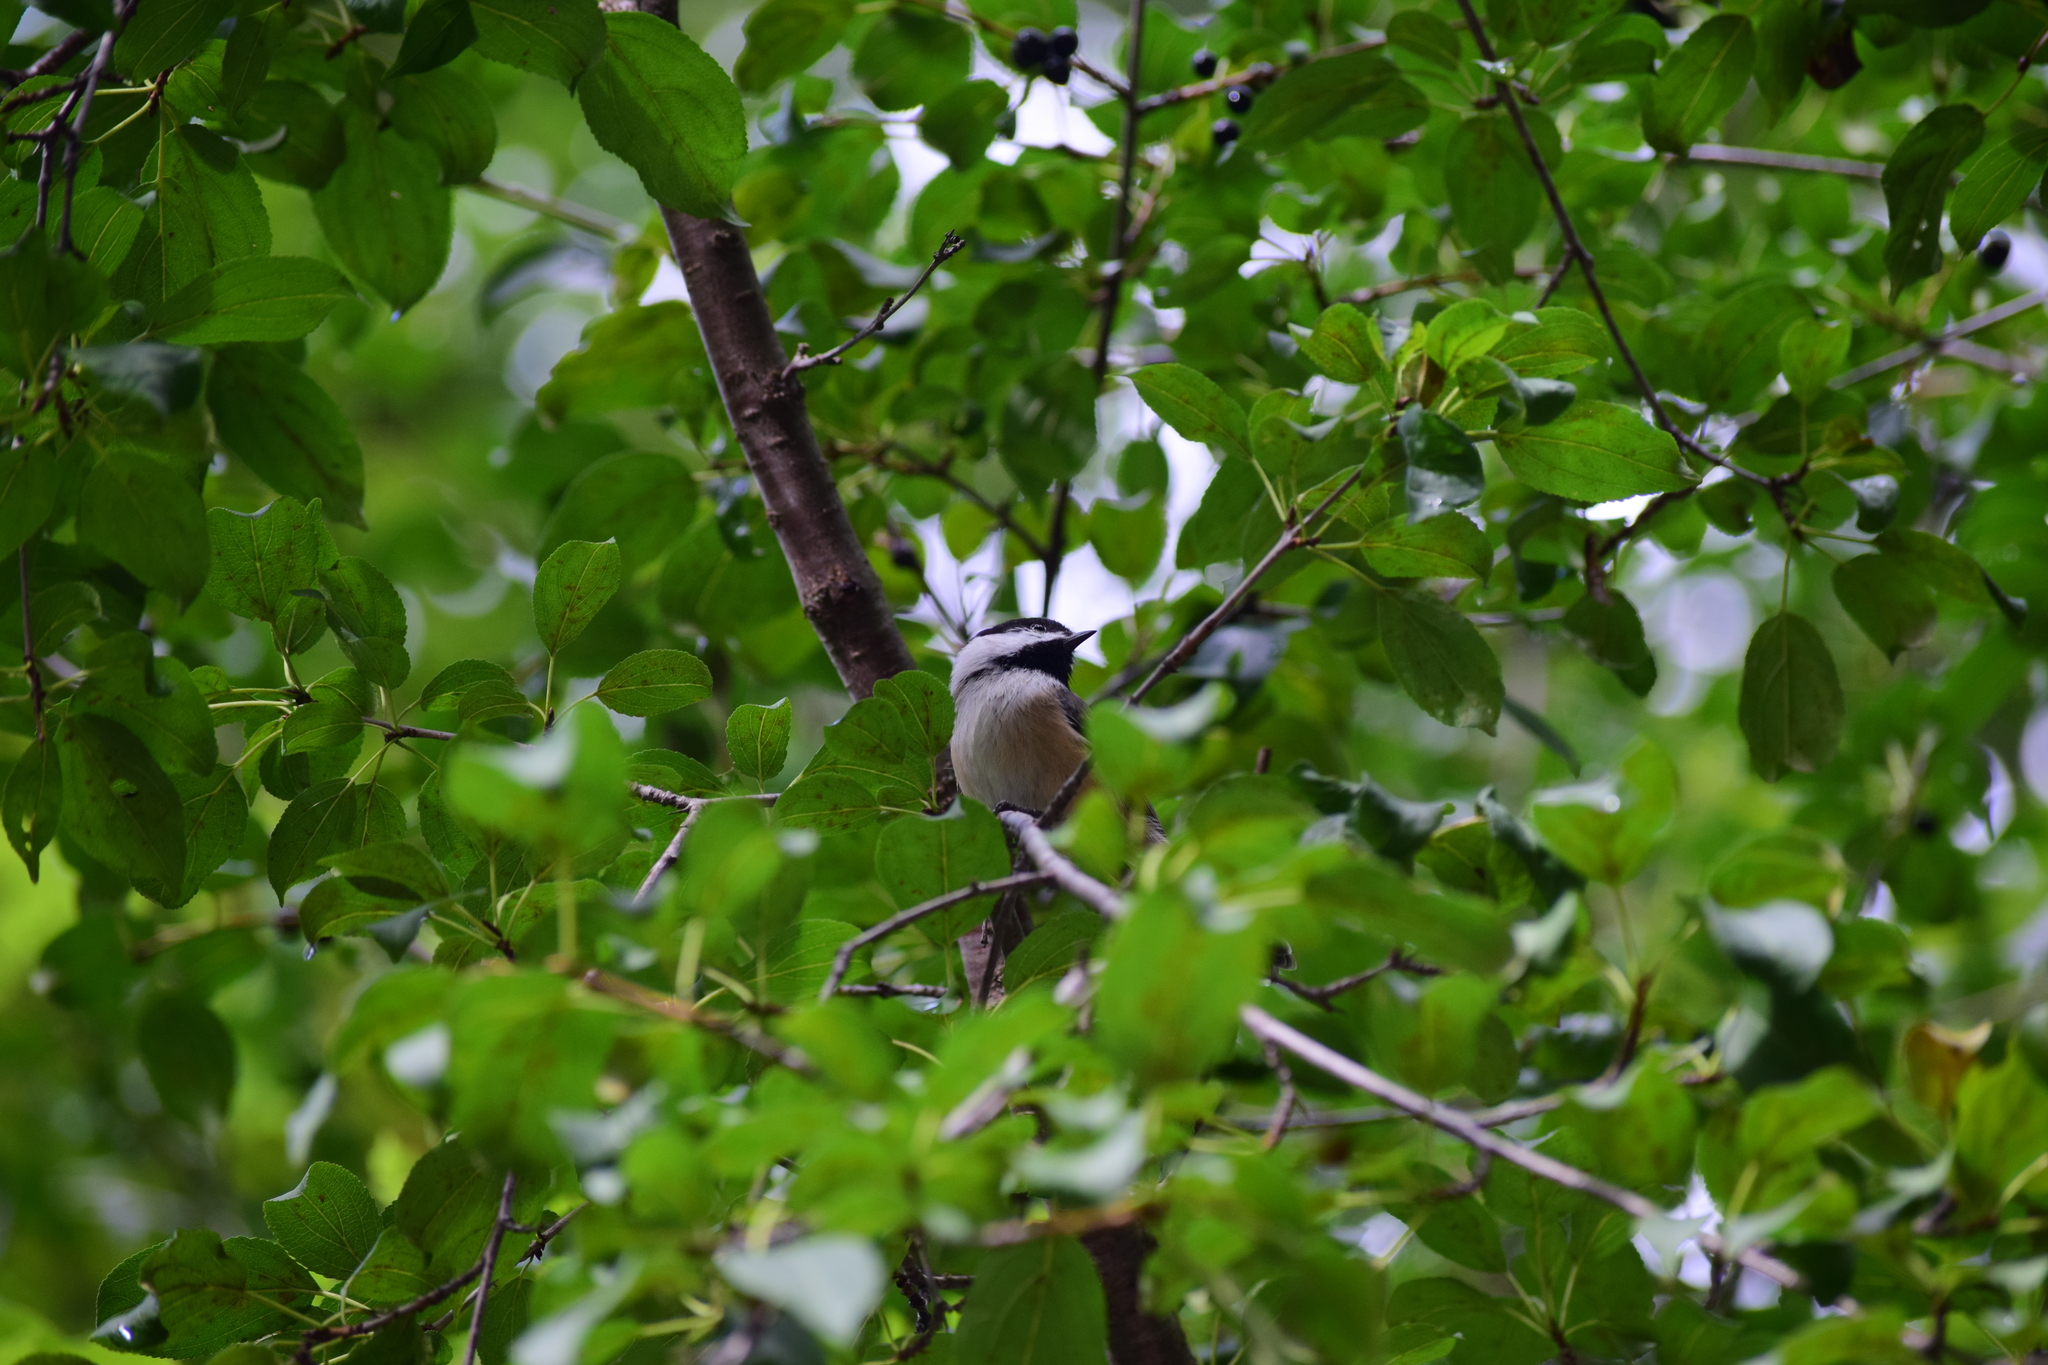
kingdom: Animalia
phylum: Chordata
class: Aves
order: Passeriformes
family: Paridae
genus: Poecile
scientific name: Poecile atricapillus
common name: Black-capped chickadee
